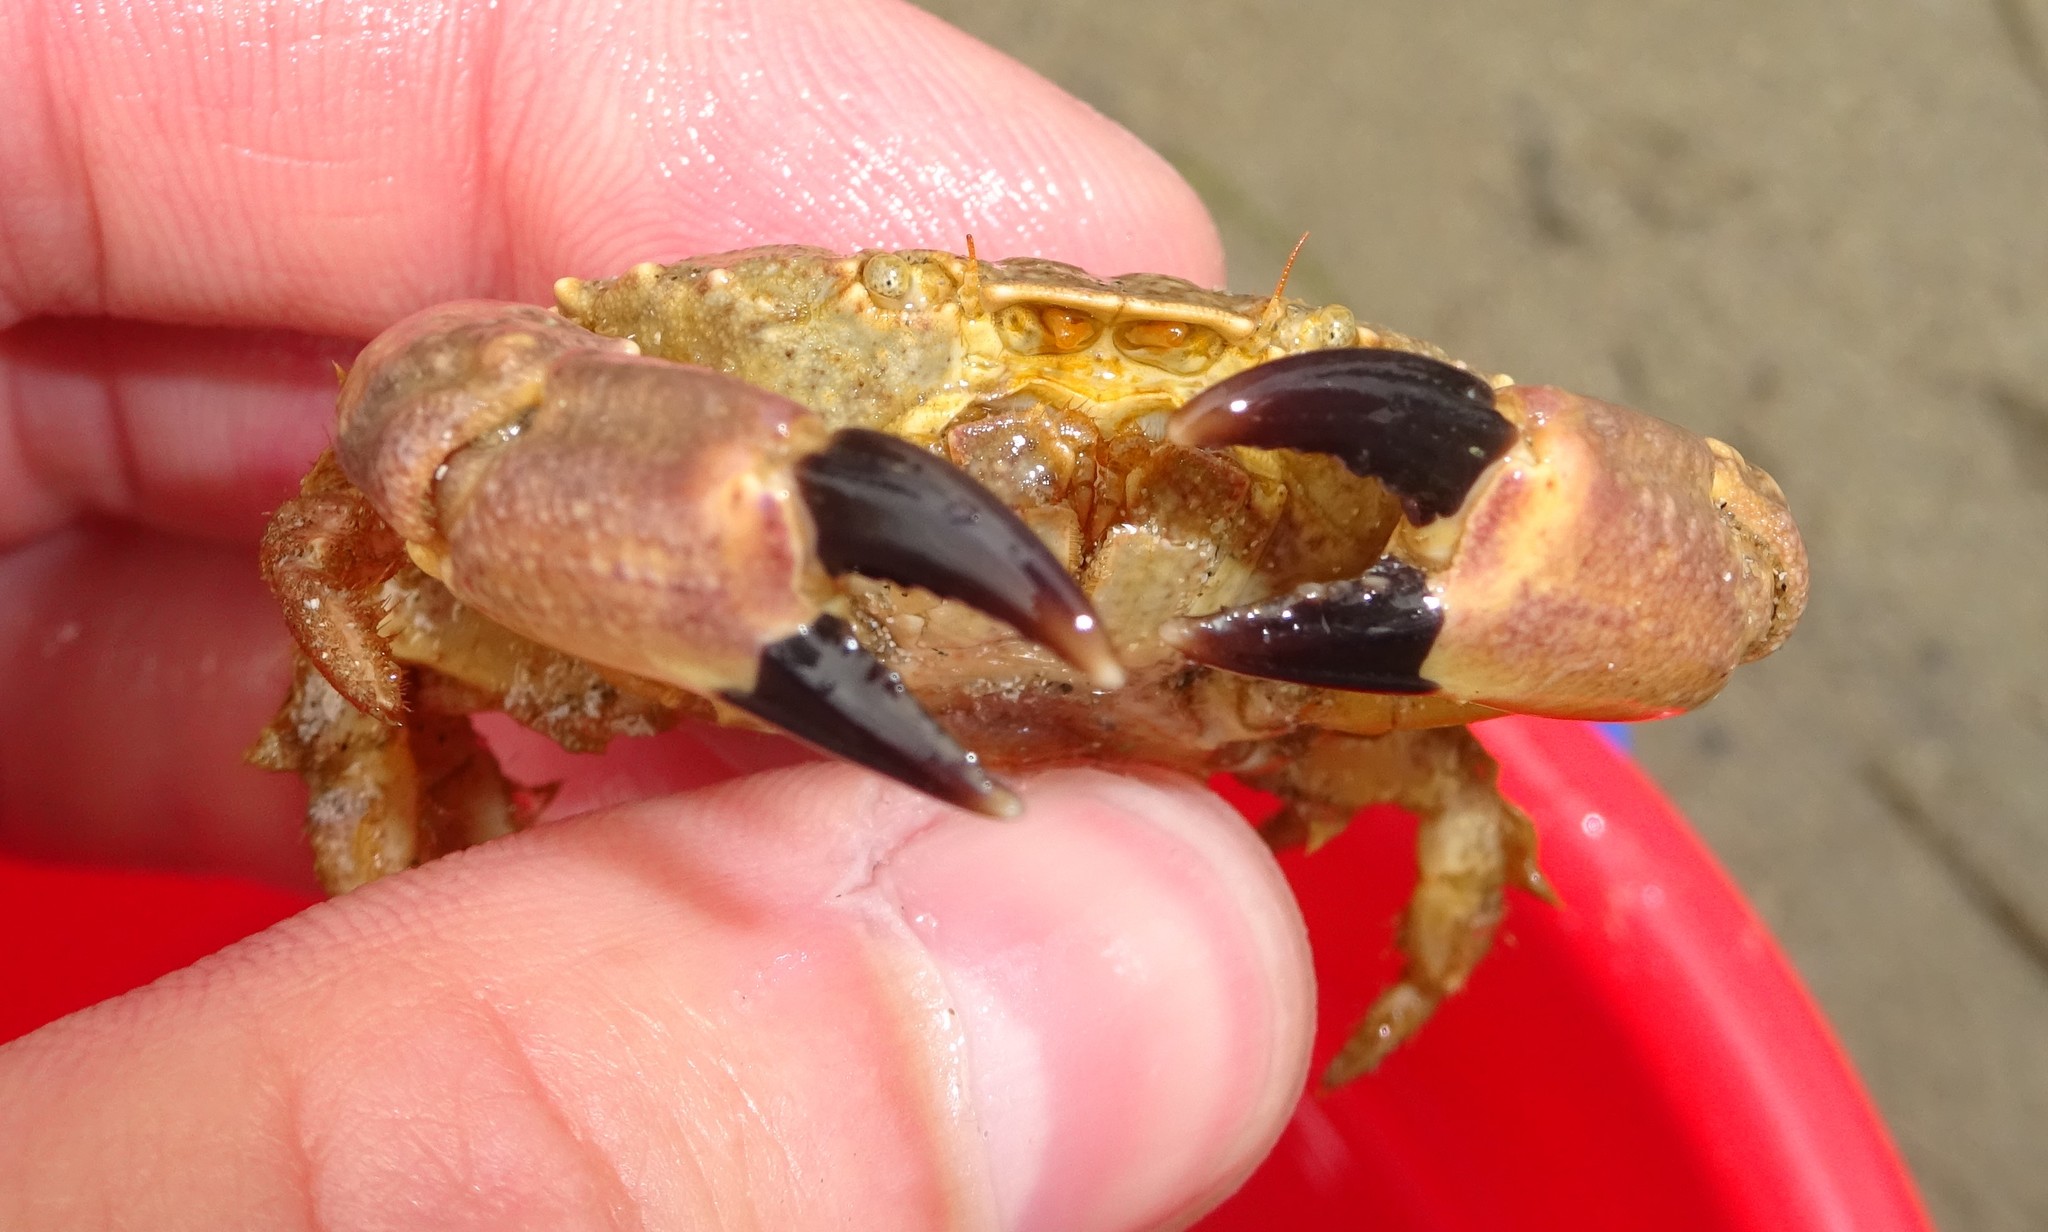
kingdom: Animalia
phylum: Arthropoda
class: Malacostraca
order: Decapoda
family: Xanthidae
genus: Xantho
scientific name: Xantho pilipes
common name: Risso's crab
